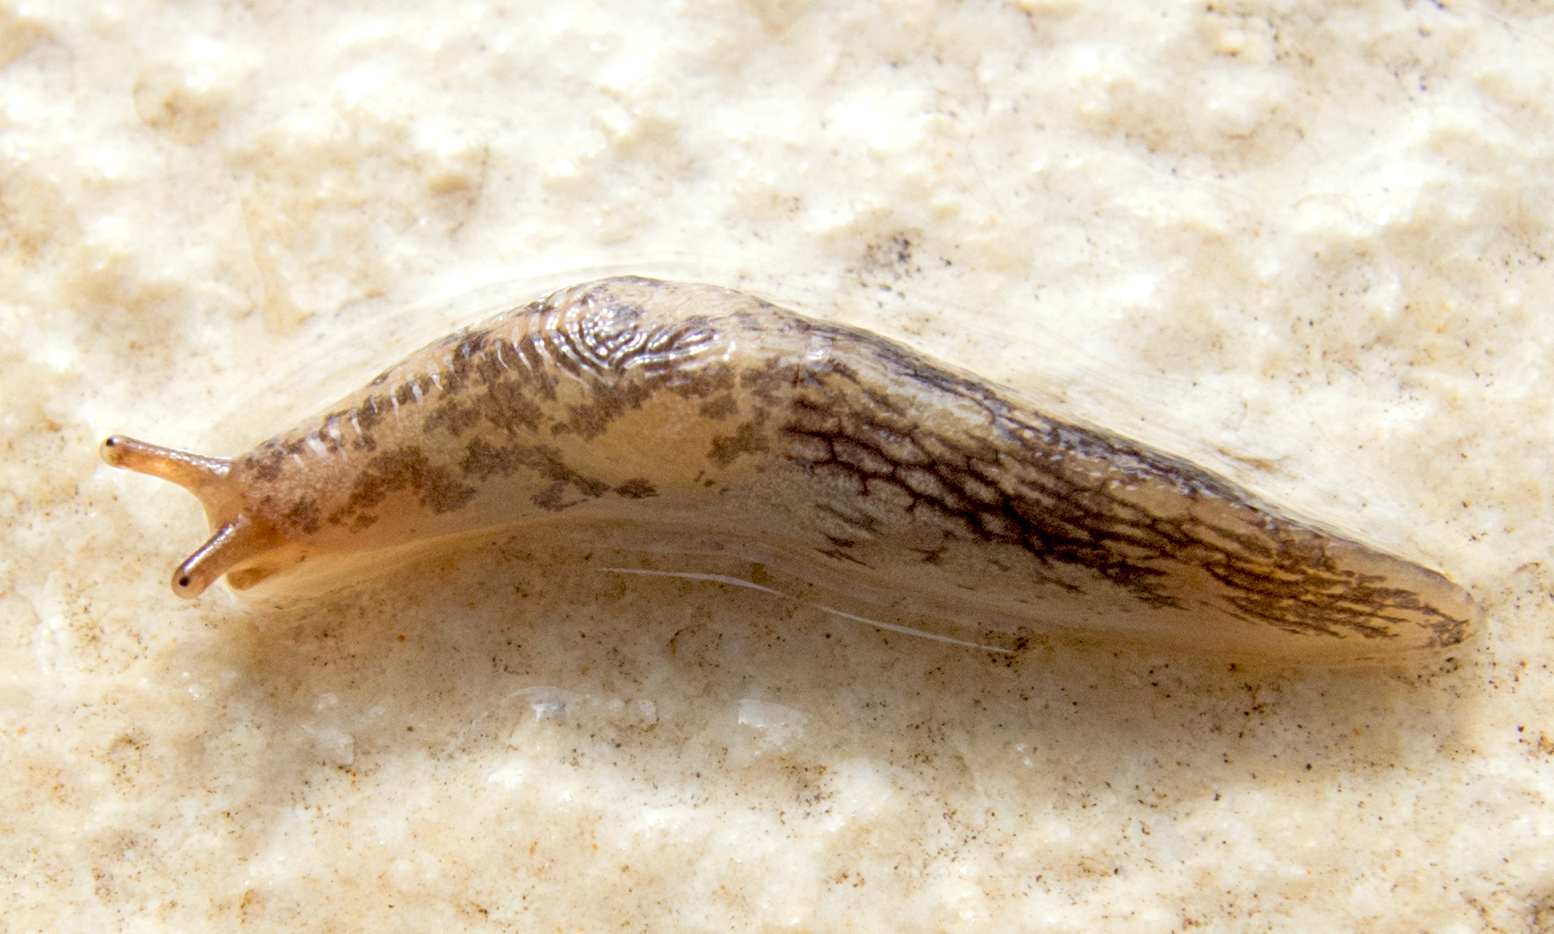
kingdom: Animalia
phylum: Mollusca
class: Gastropoda
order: Stylommatophora
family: Agriolimacidae
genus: Deroceras
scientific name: Deroceras reticulatum
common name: Gray field slug
